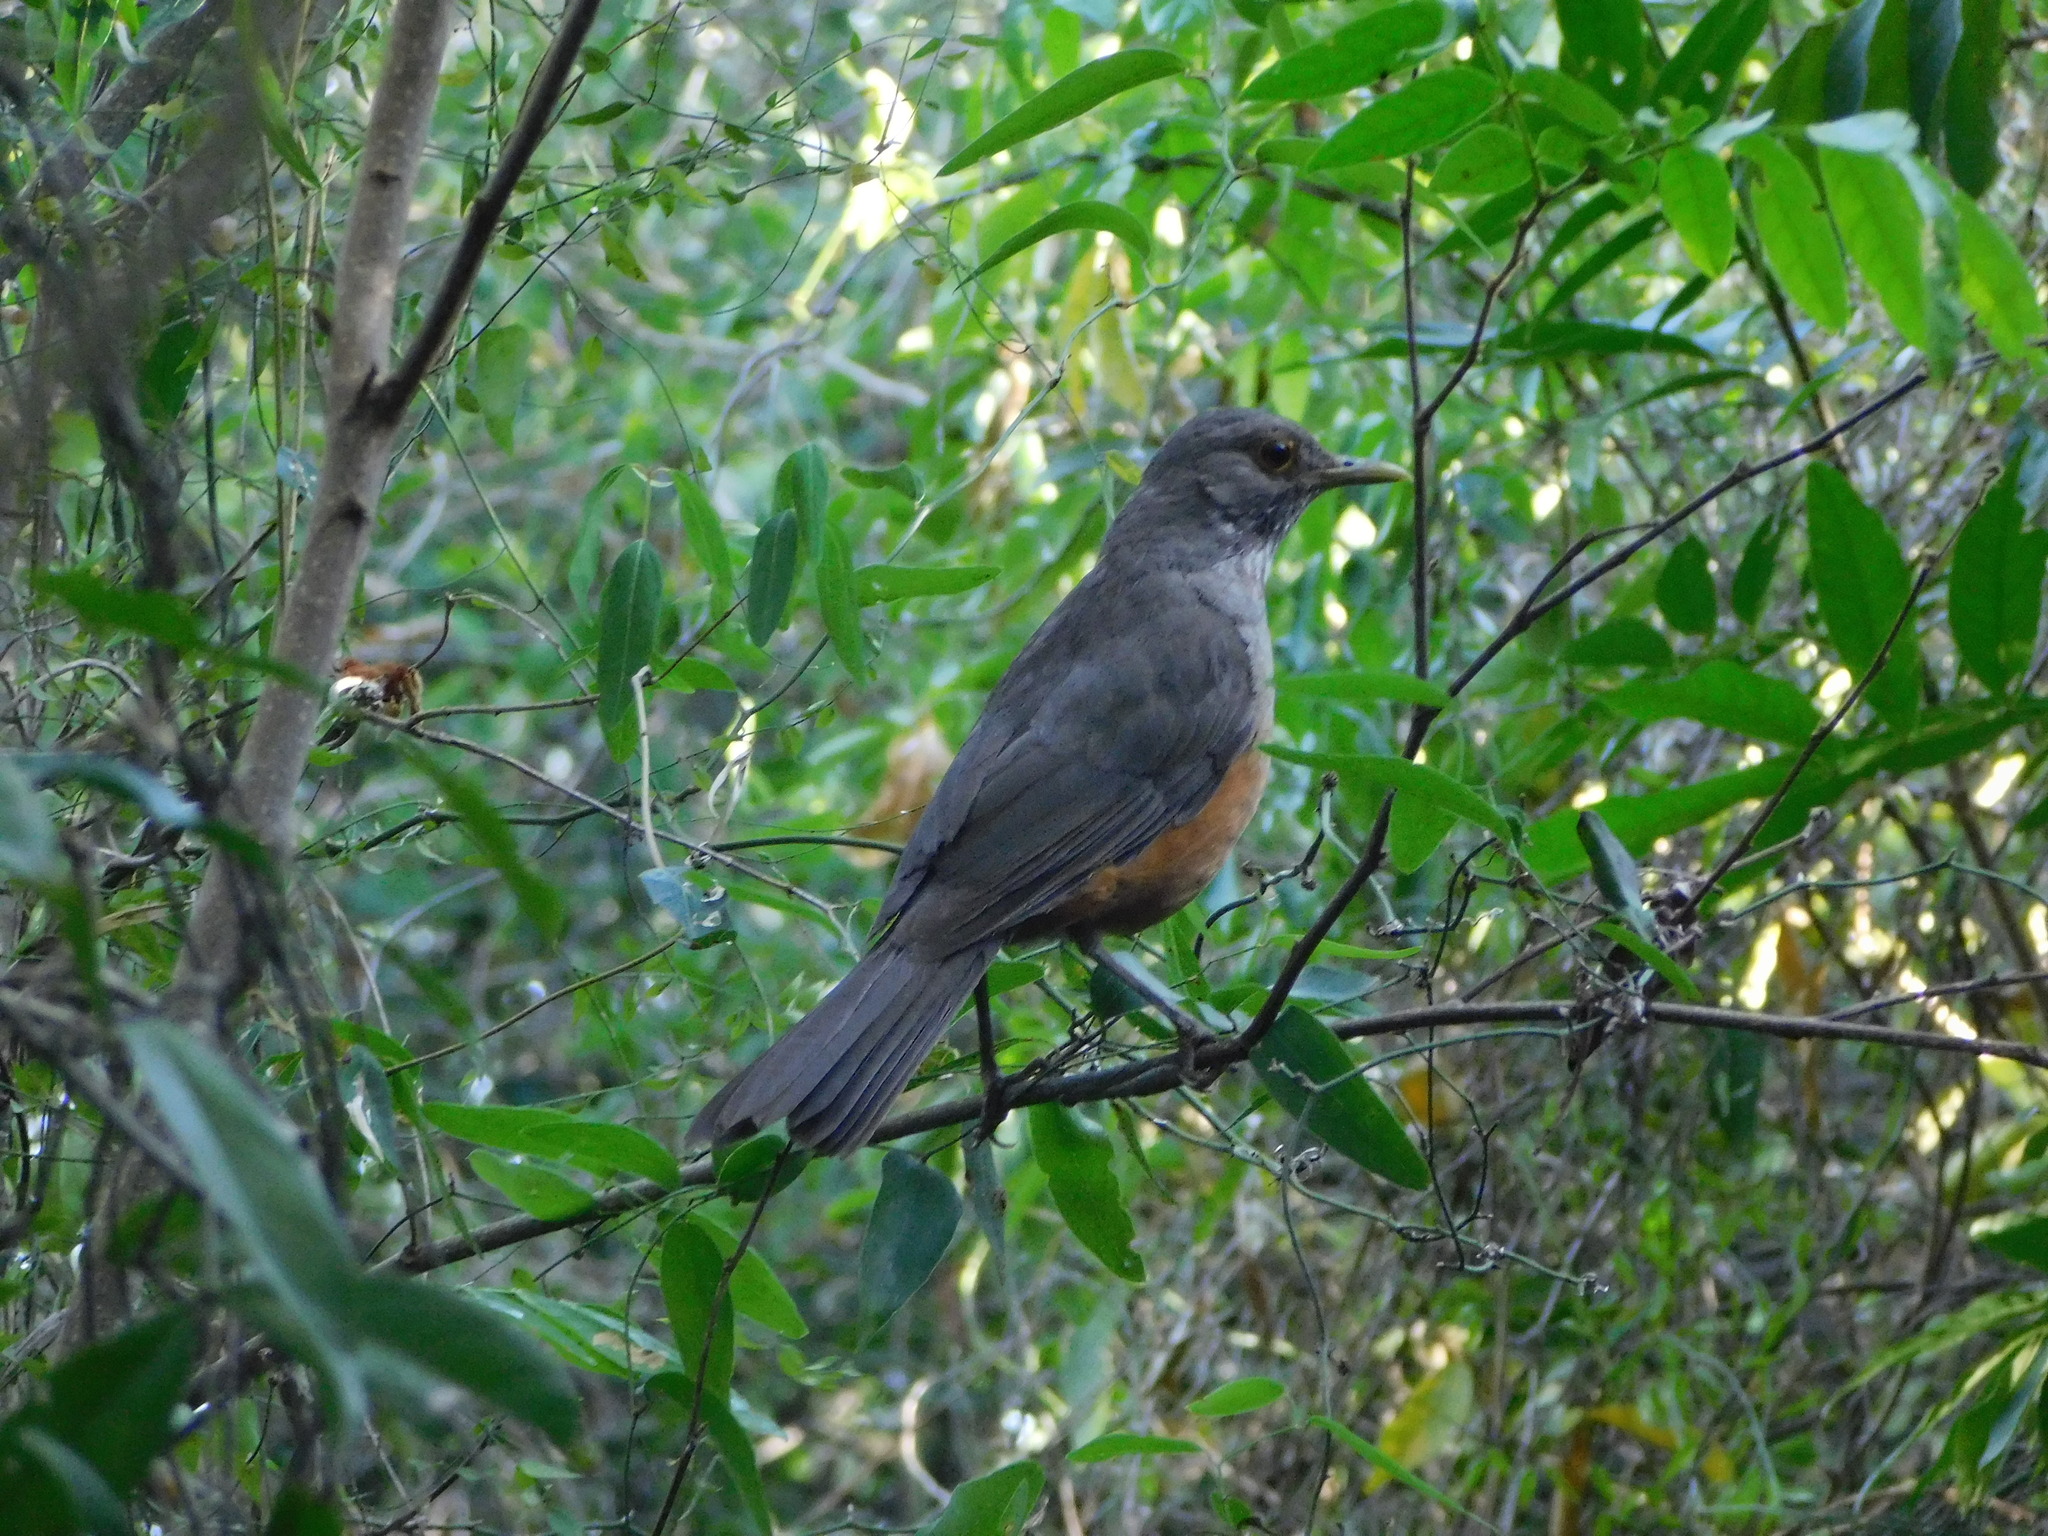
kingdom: Animalia
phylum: Chordata
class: Aves
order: Passeriformes
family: Turdidae
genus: Turdus
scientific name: Turdus rufiventris
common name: Rufous-bellied thrush
